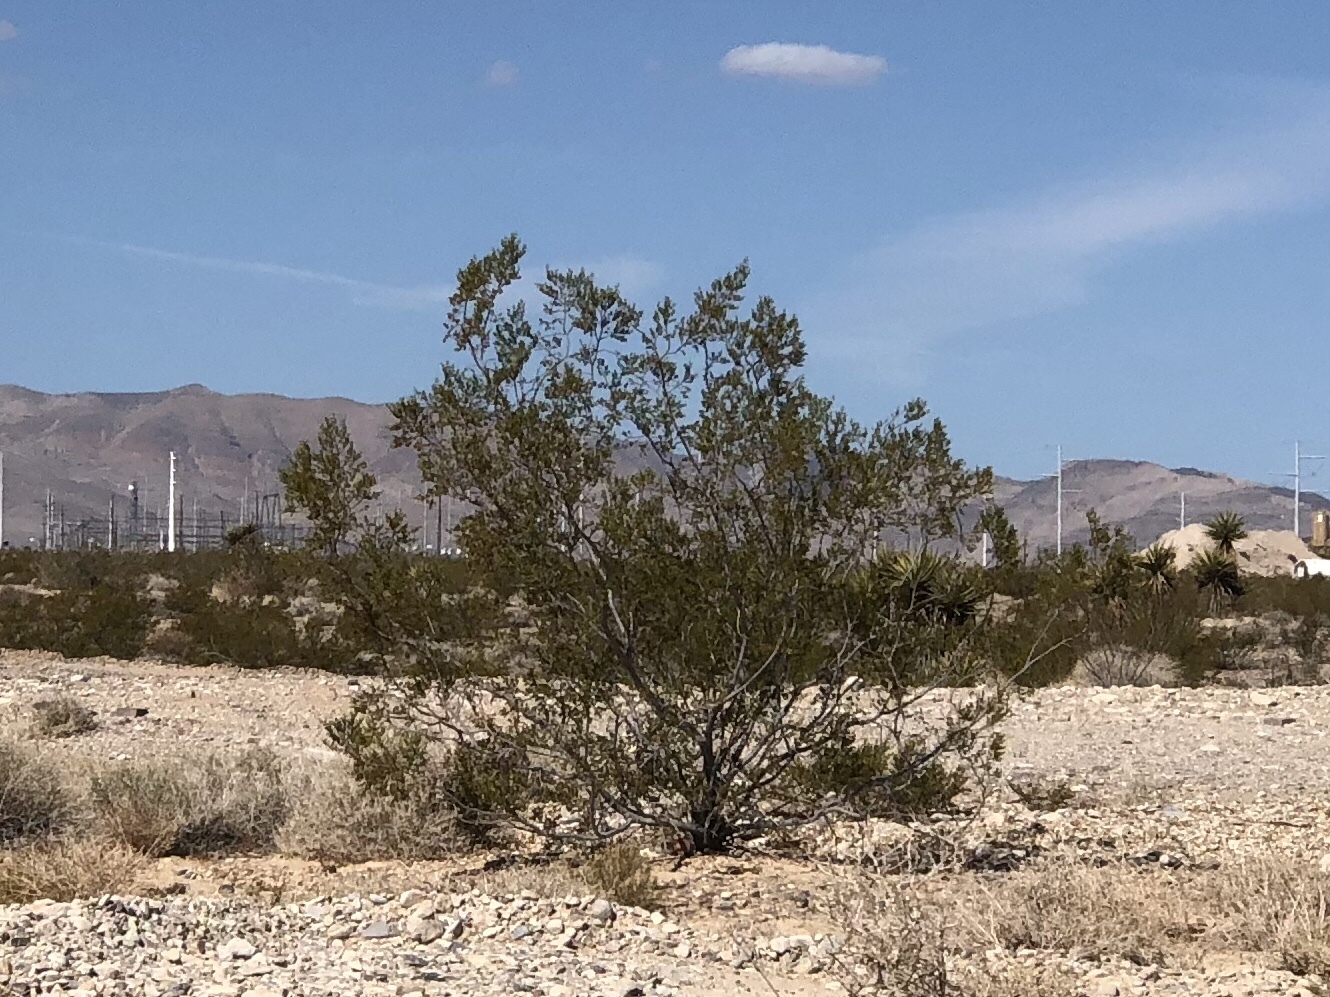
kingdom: Plantae
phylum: Tracheophyta
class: Magnoliopsida
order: Zygophyllales
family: Zygophyllaceae
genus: Larrea
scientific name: Larrea tridentata
